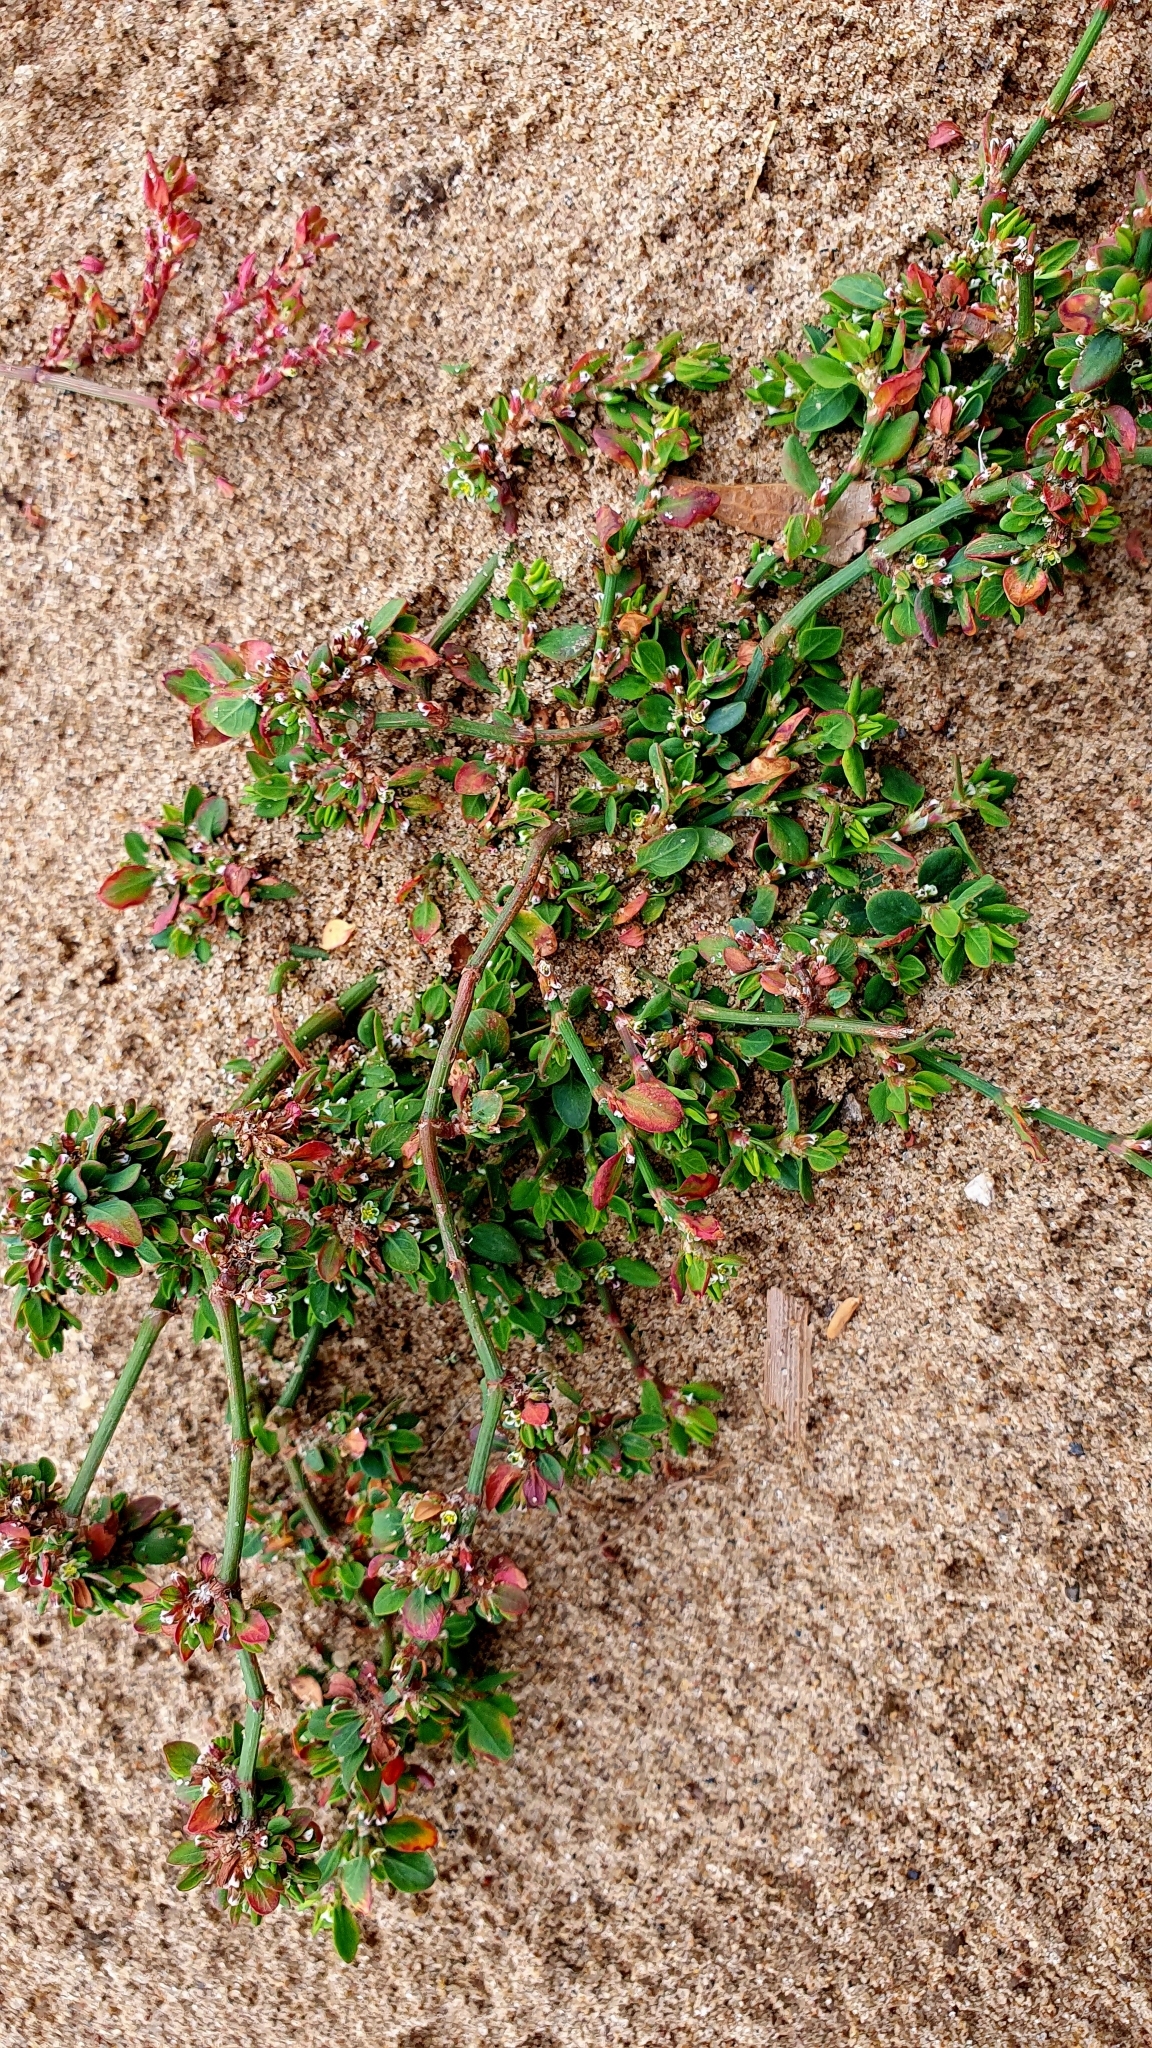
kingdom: Plantae
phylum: Tracheophyta
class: Magnoliopsida
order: Caryophyllales
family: Polygonaceae
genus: Polygonum
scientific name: Polygonum arenastrum
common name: Equal-leaved knotgrass
